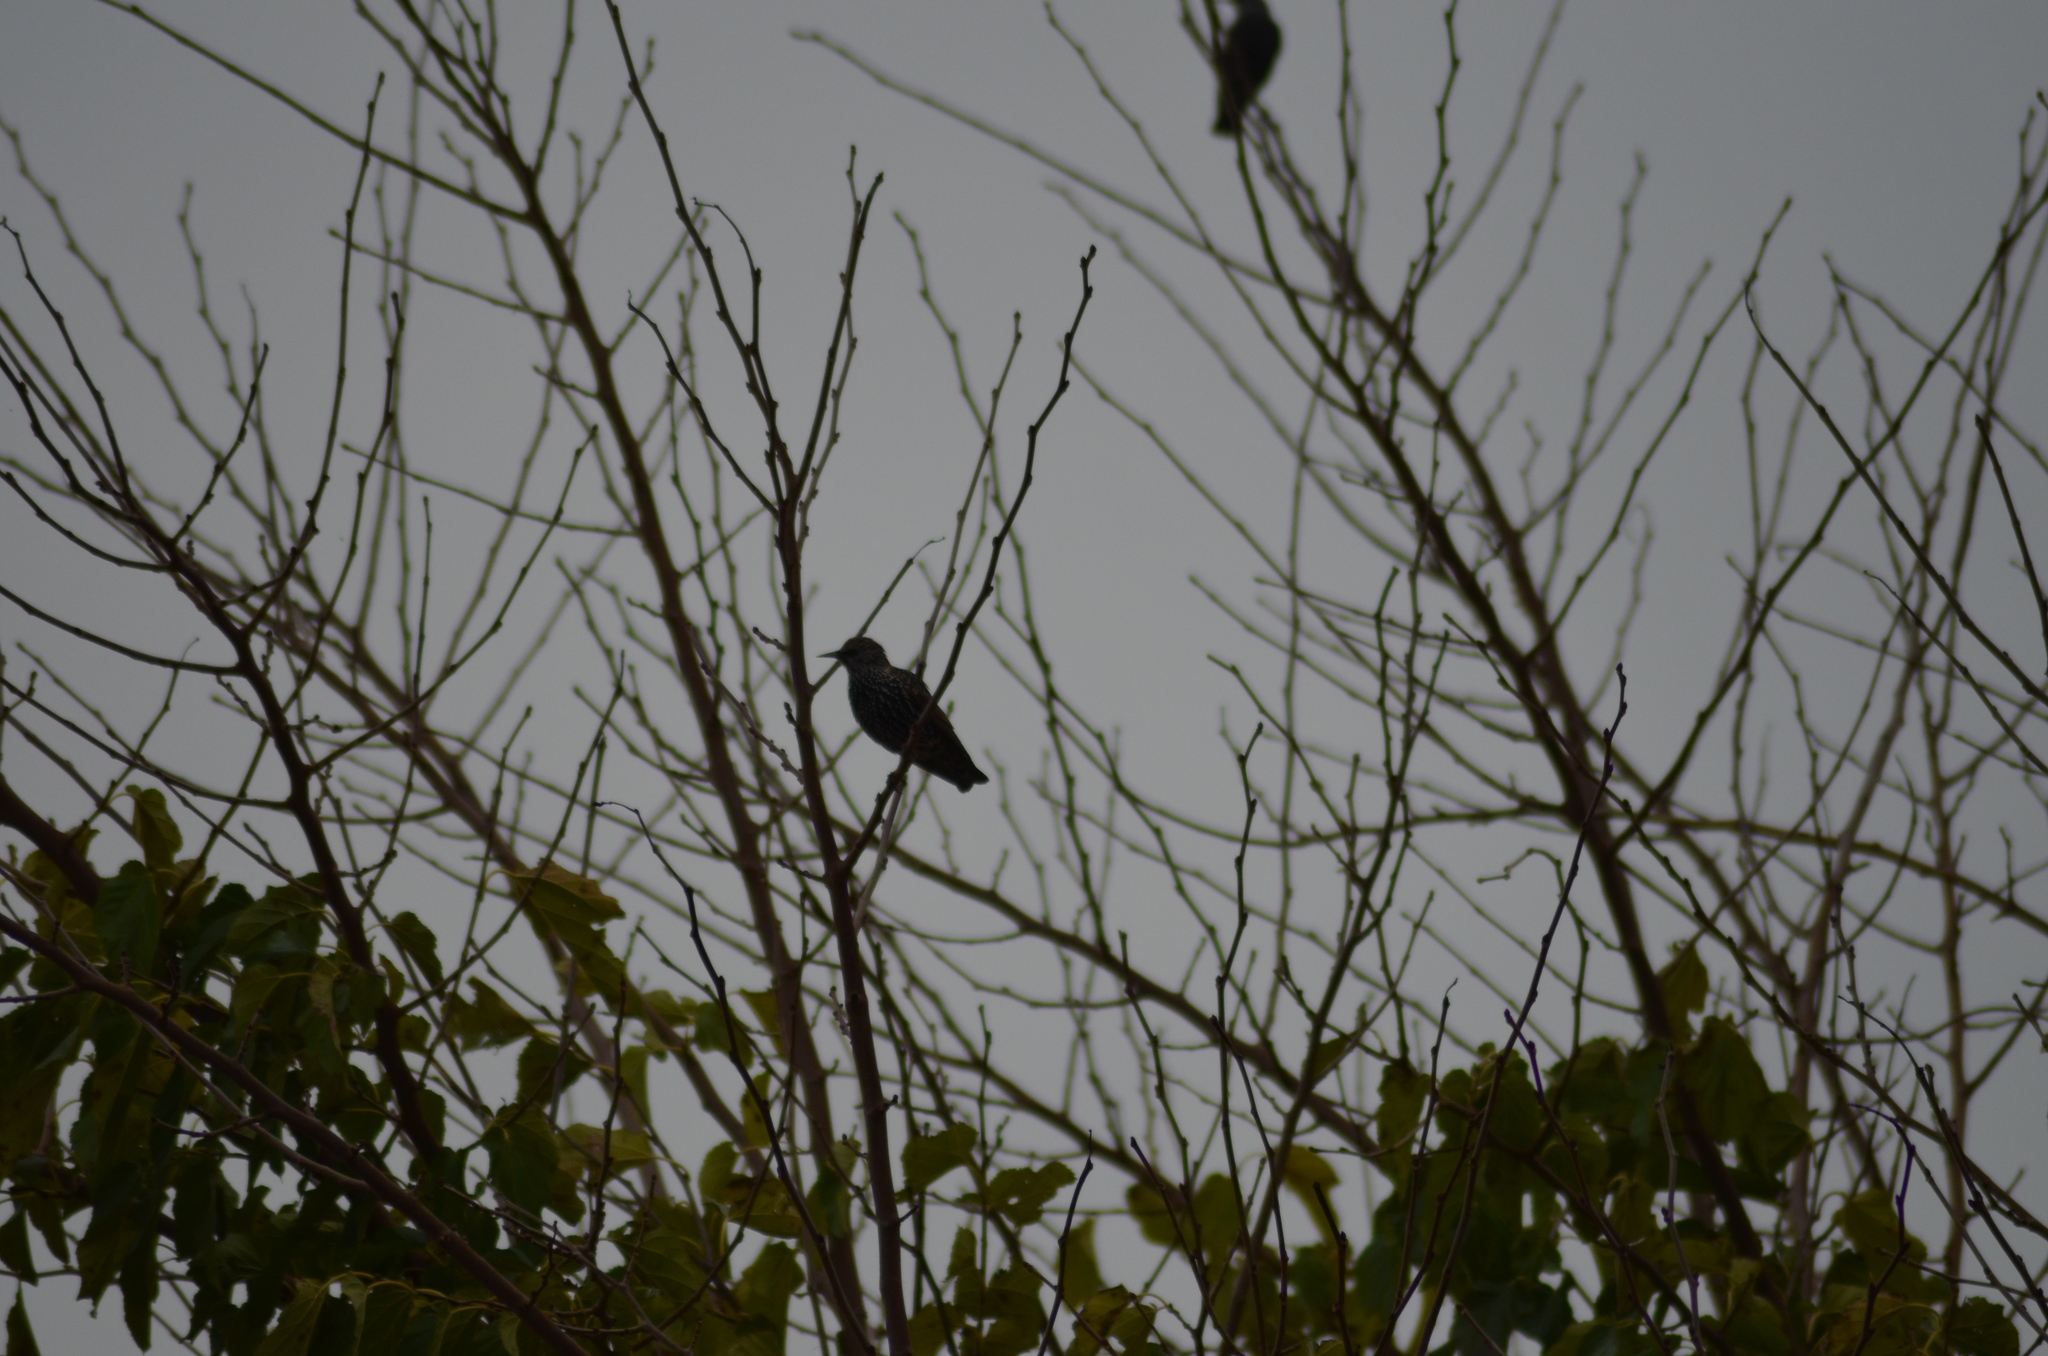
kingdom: Animalia
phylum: Chordata
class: Aves
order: Passeriformes
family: Sturnidae
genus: Sturnus
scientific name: Sturnus vulgaris
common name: Common starling
